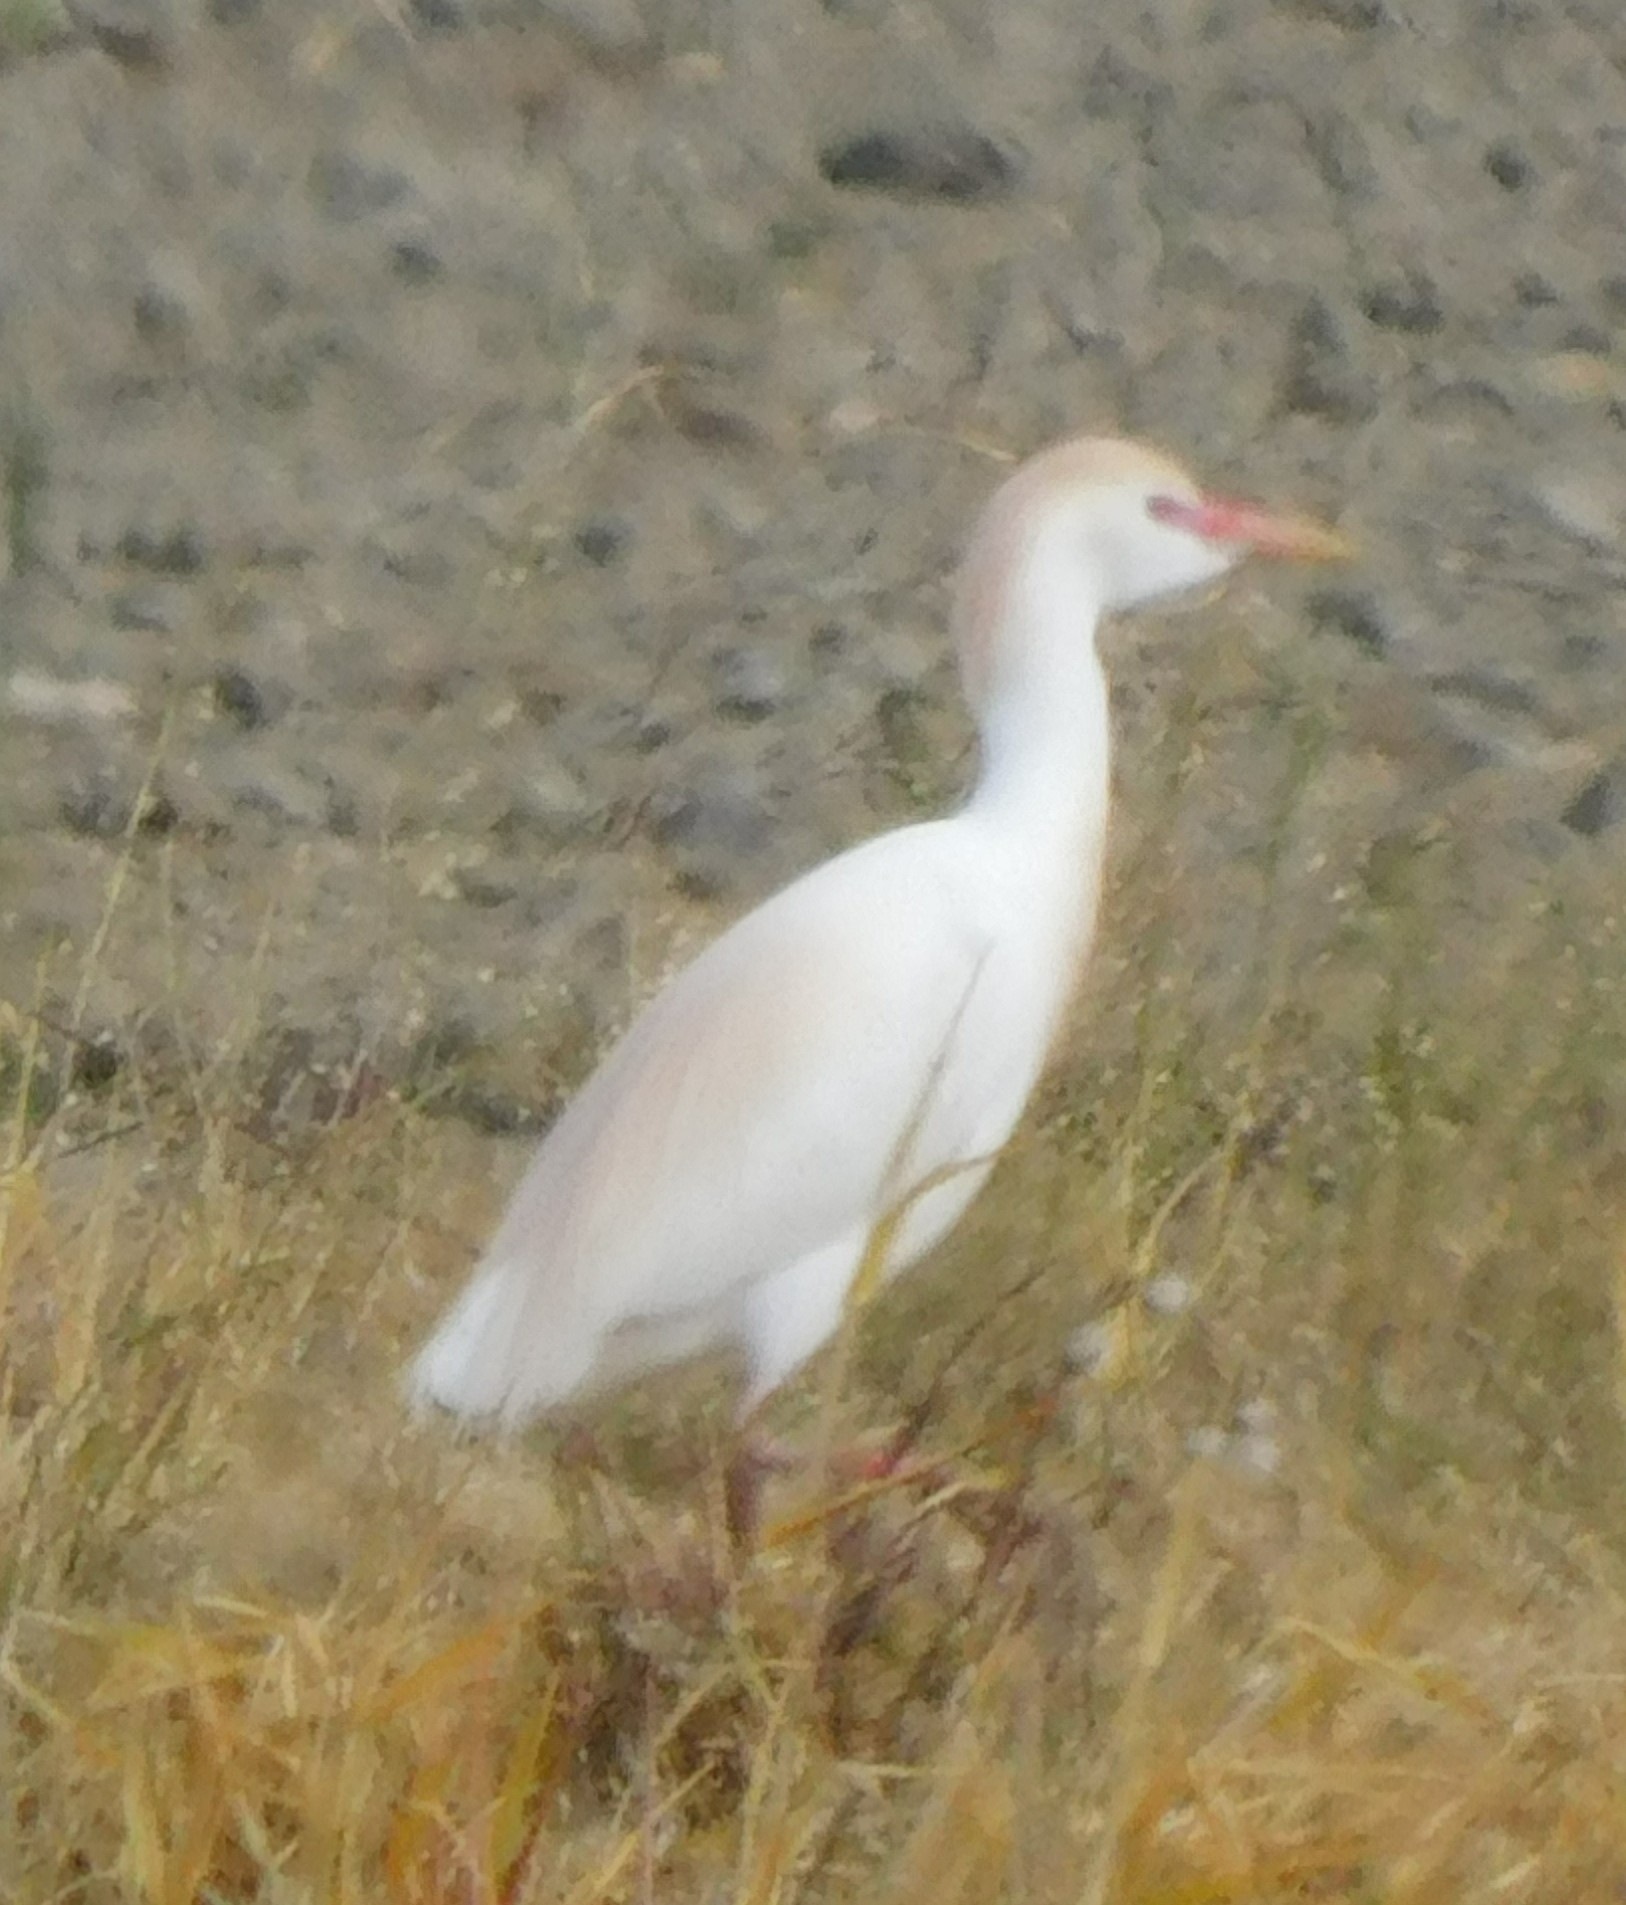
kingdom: Animalia
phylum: Chordata
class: Aves
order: Pelecaniformes
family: Ardeidae
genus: Bubulcus
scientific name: Bubulcus ibis
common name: Cattle egret
